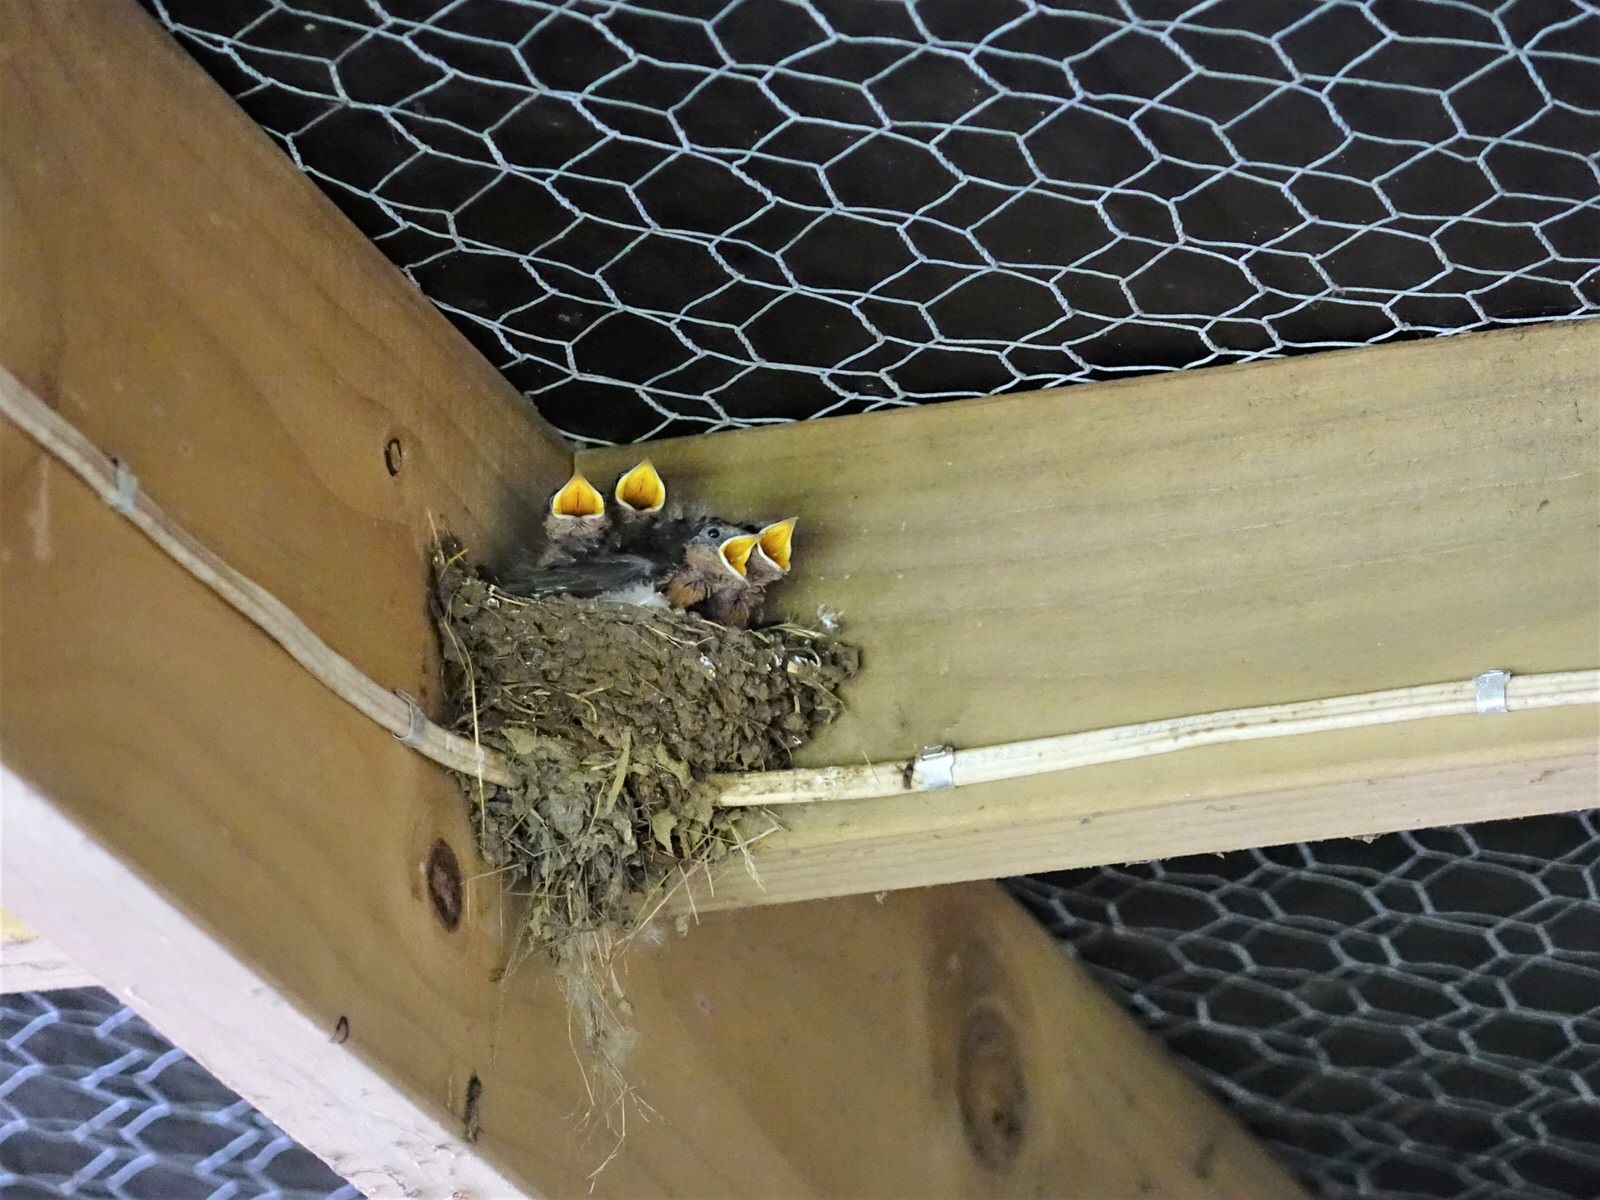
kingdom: Animalia
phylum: Chordata
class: Aves
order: Passeriformes
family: Hirundinidae
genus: Hirundo
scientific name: Hirundo neoxena
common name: Welcome swallow
